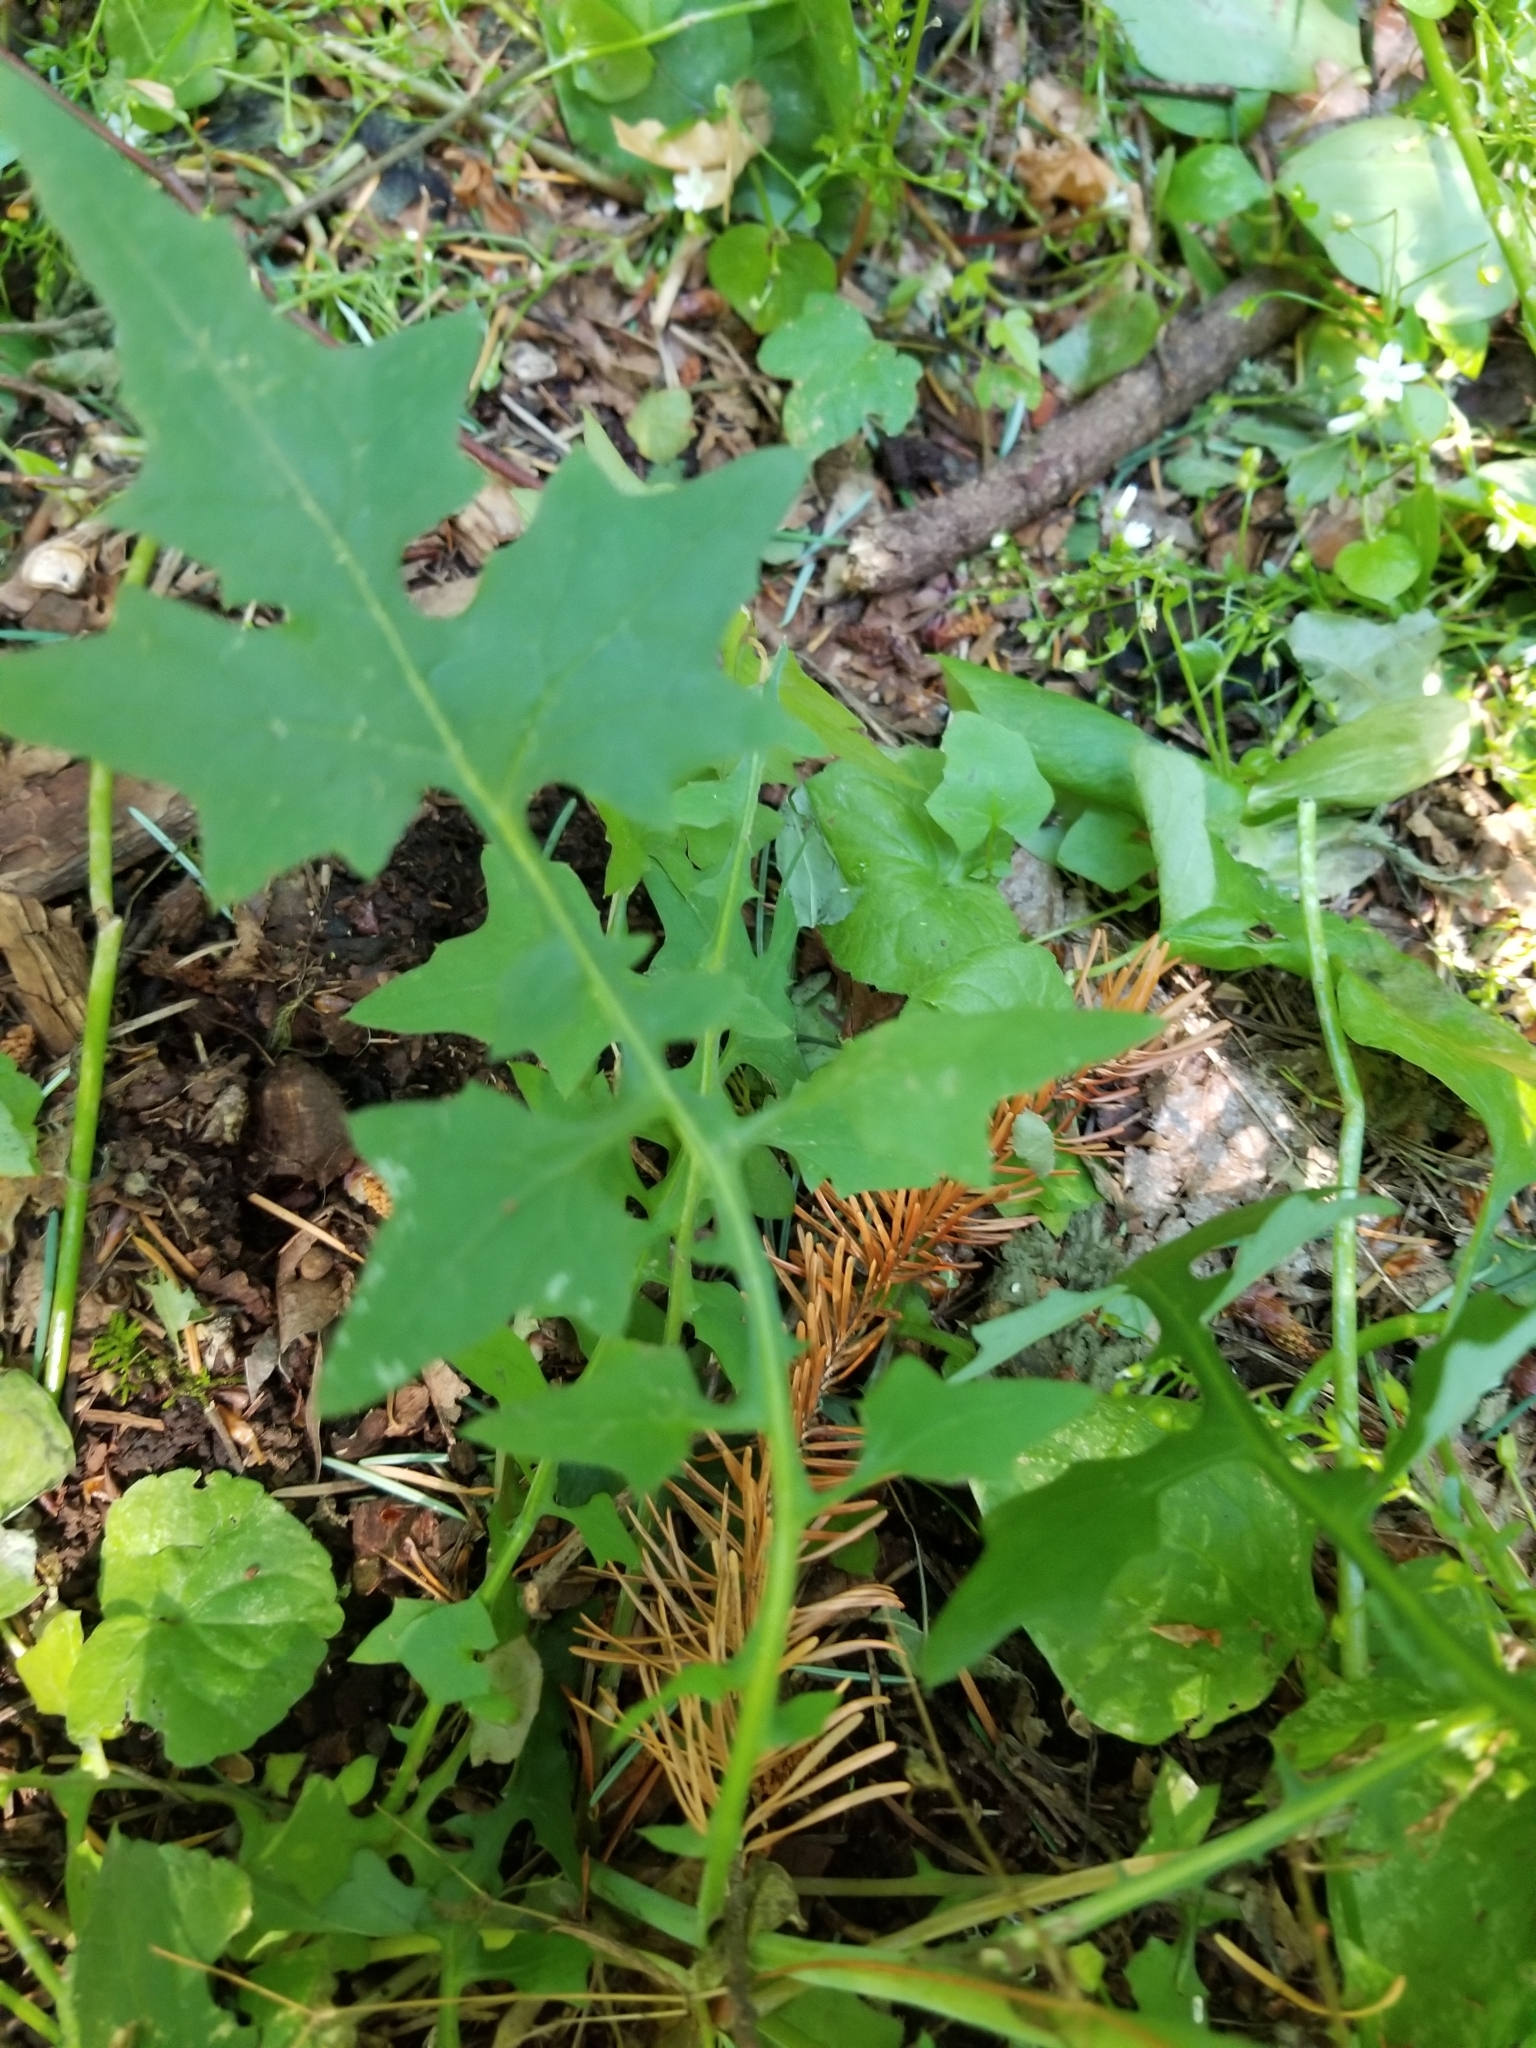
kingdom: Plantae
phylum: Tracheophyta
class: Magnoliopsida
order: Asterales
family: Asteraceae
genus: Mycelis
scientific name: Mycelis muralis
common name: Wall lettuce
